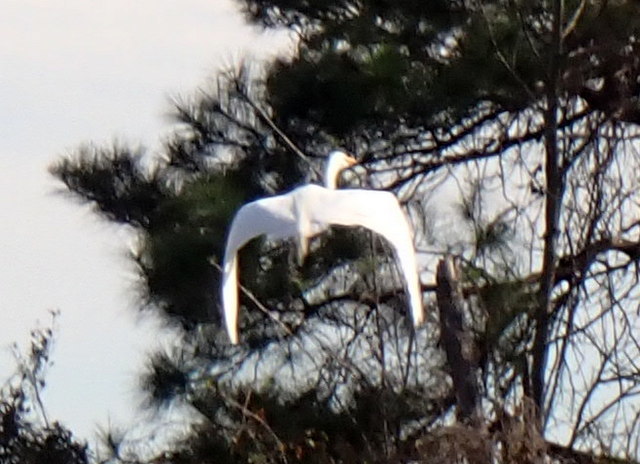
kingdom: Animalia
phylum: Chordata
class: Aves
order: Pelecaniformes
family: Ardeidae
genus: Ardea
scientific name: Ardea alba
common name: Great egret
